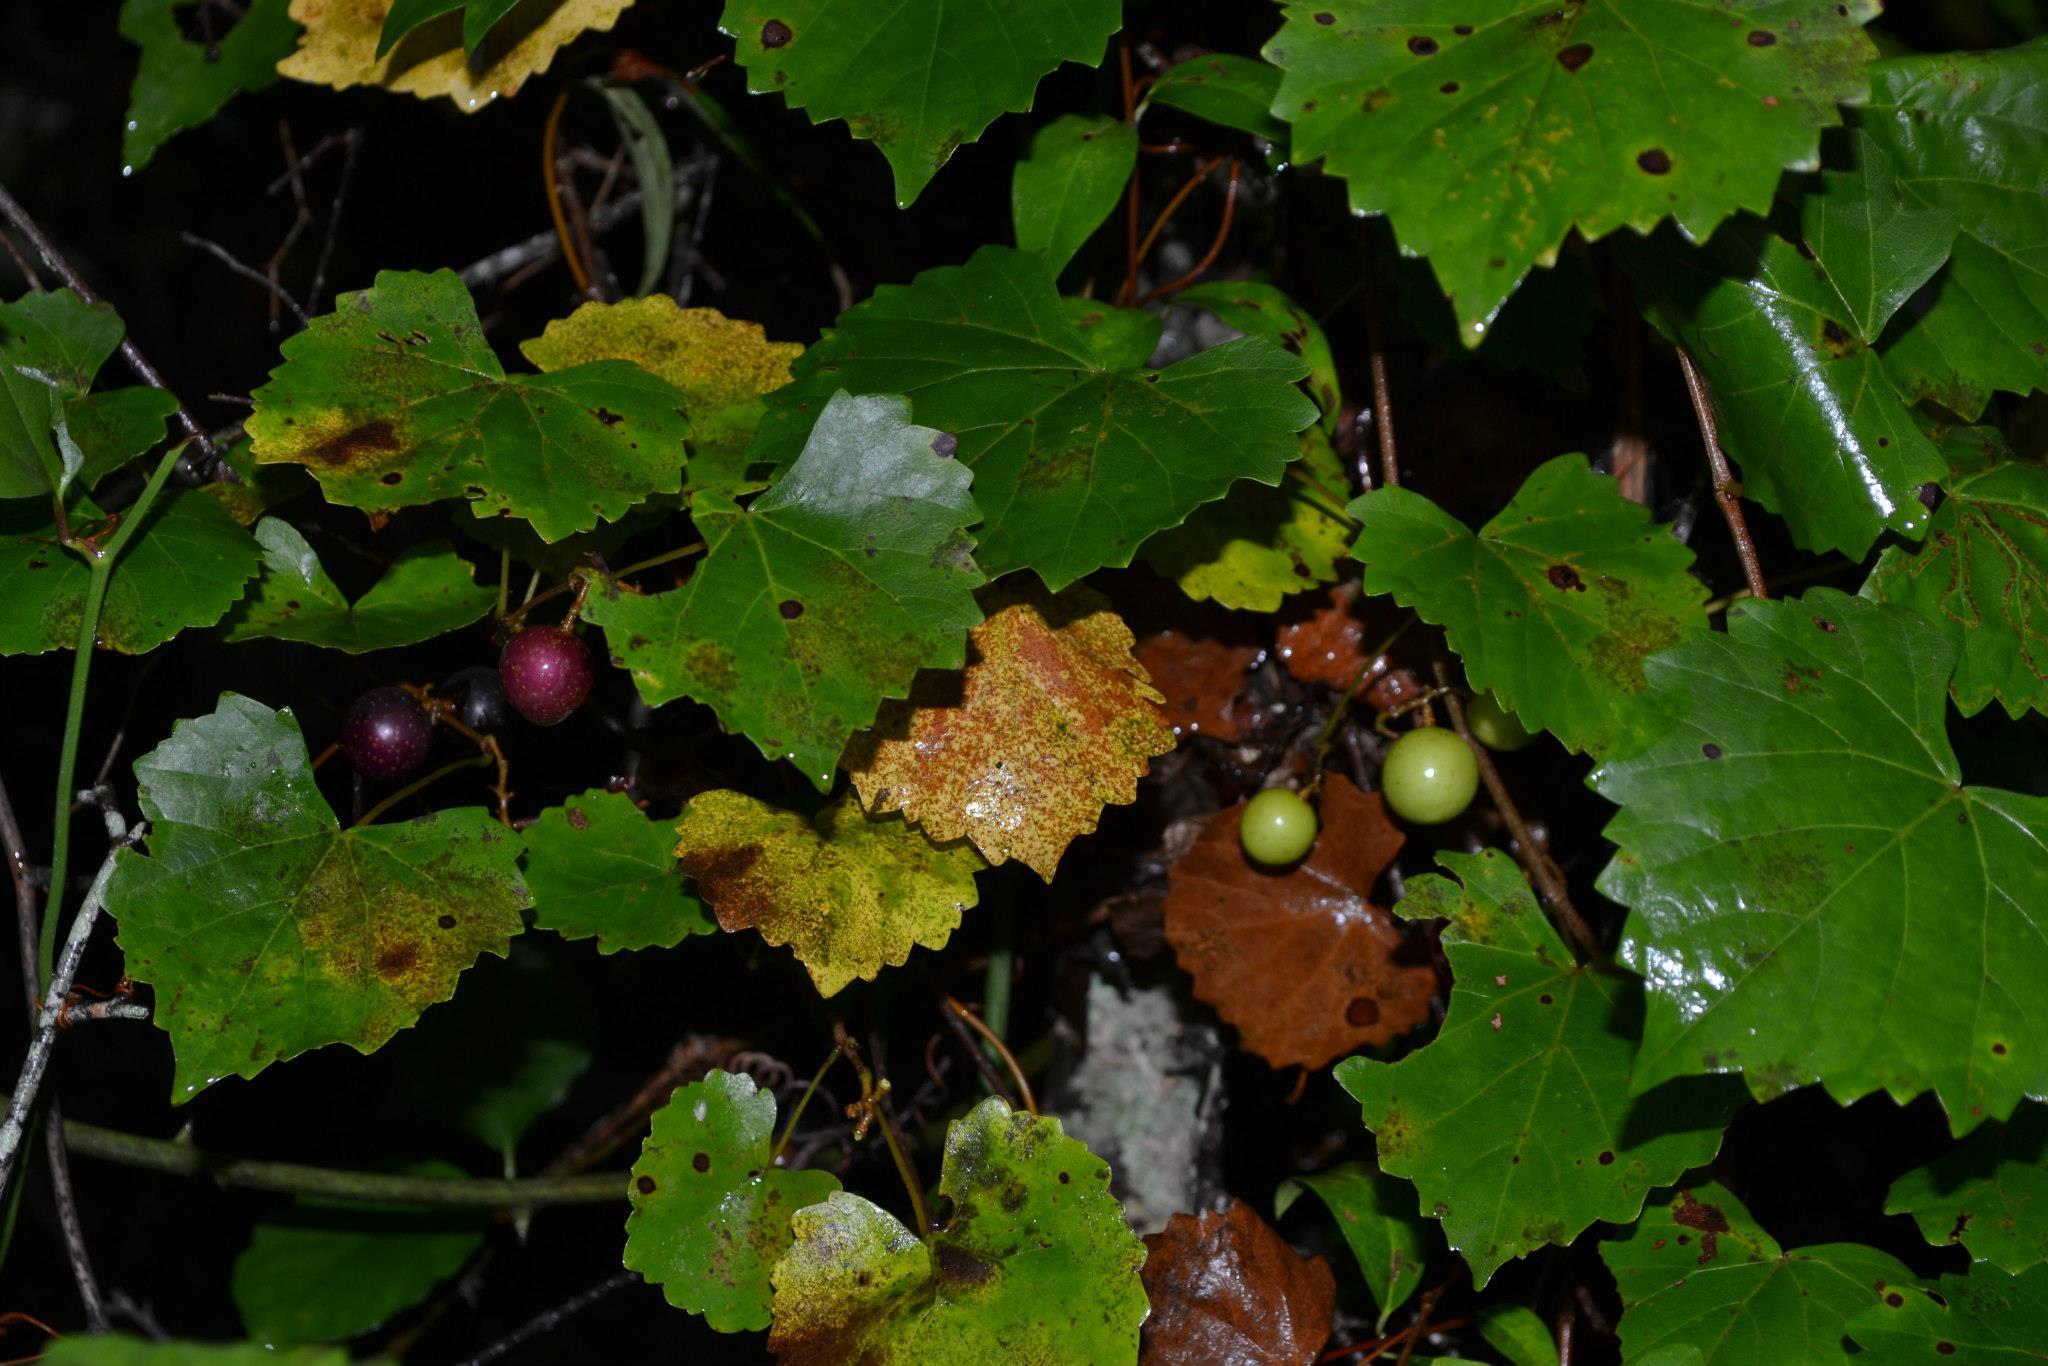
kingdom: Plantae
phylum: Tracheophyta
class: Magnoliopsida
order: Vitales
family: Vitaceae
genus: Vitis
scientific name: Vitis rotundifolia
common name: Muscadine grape
